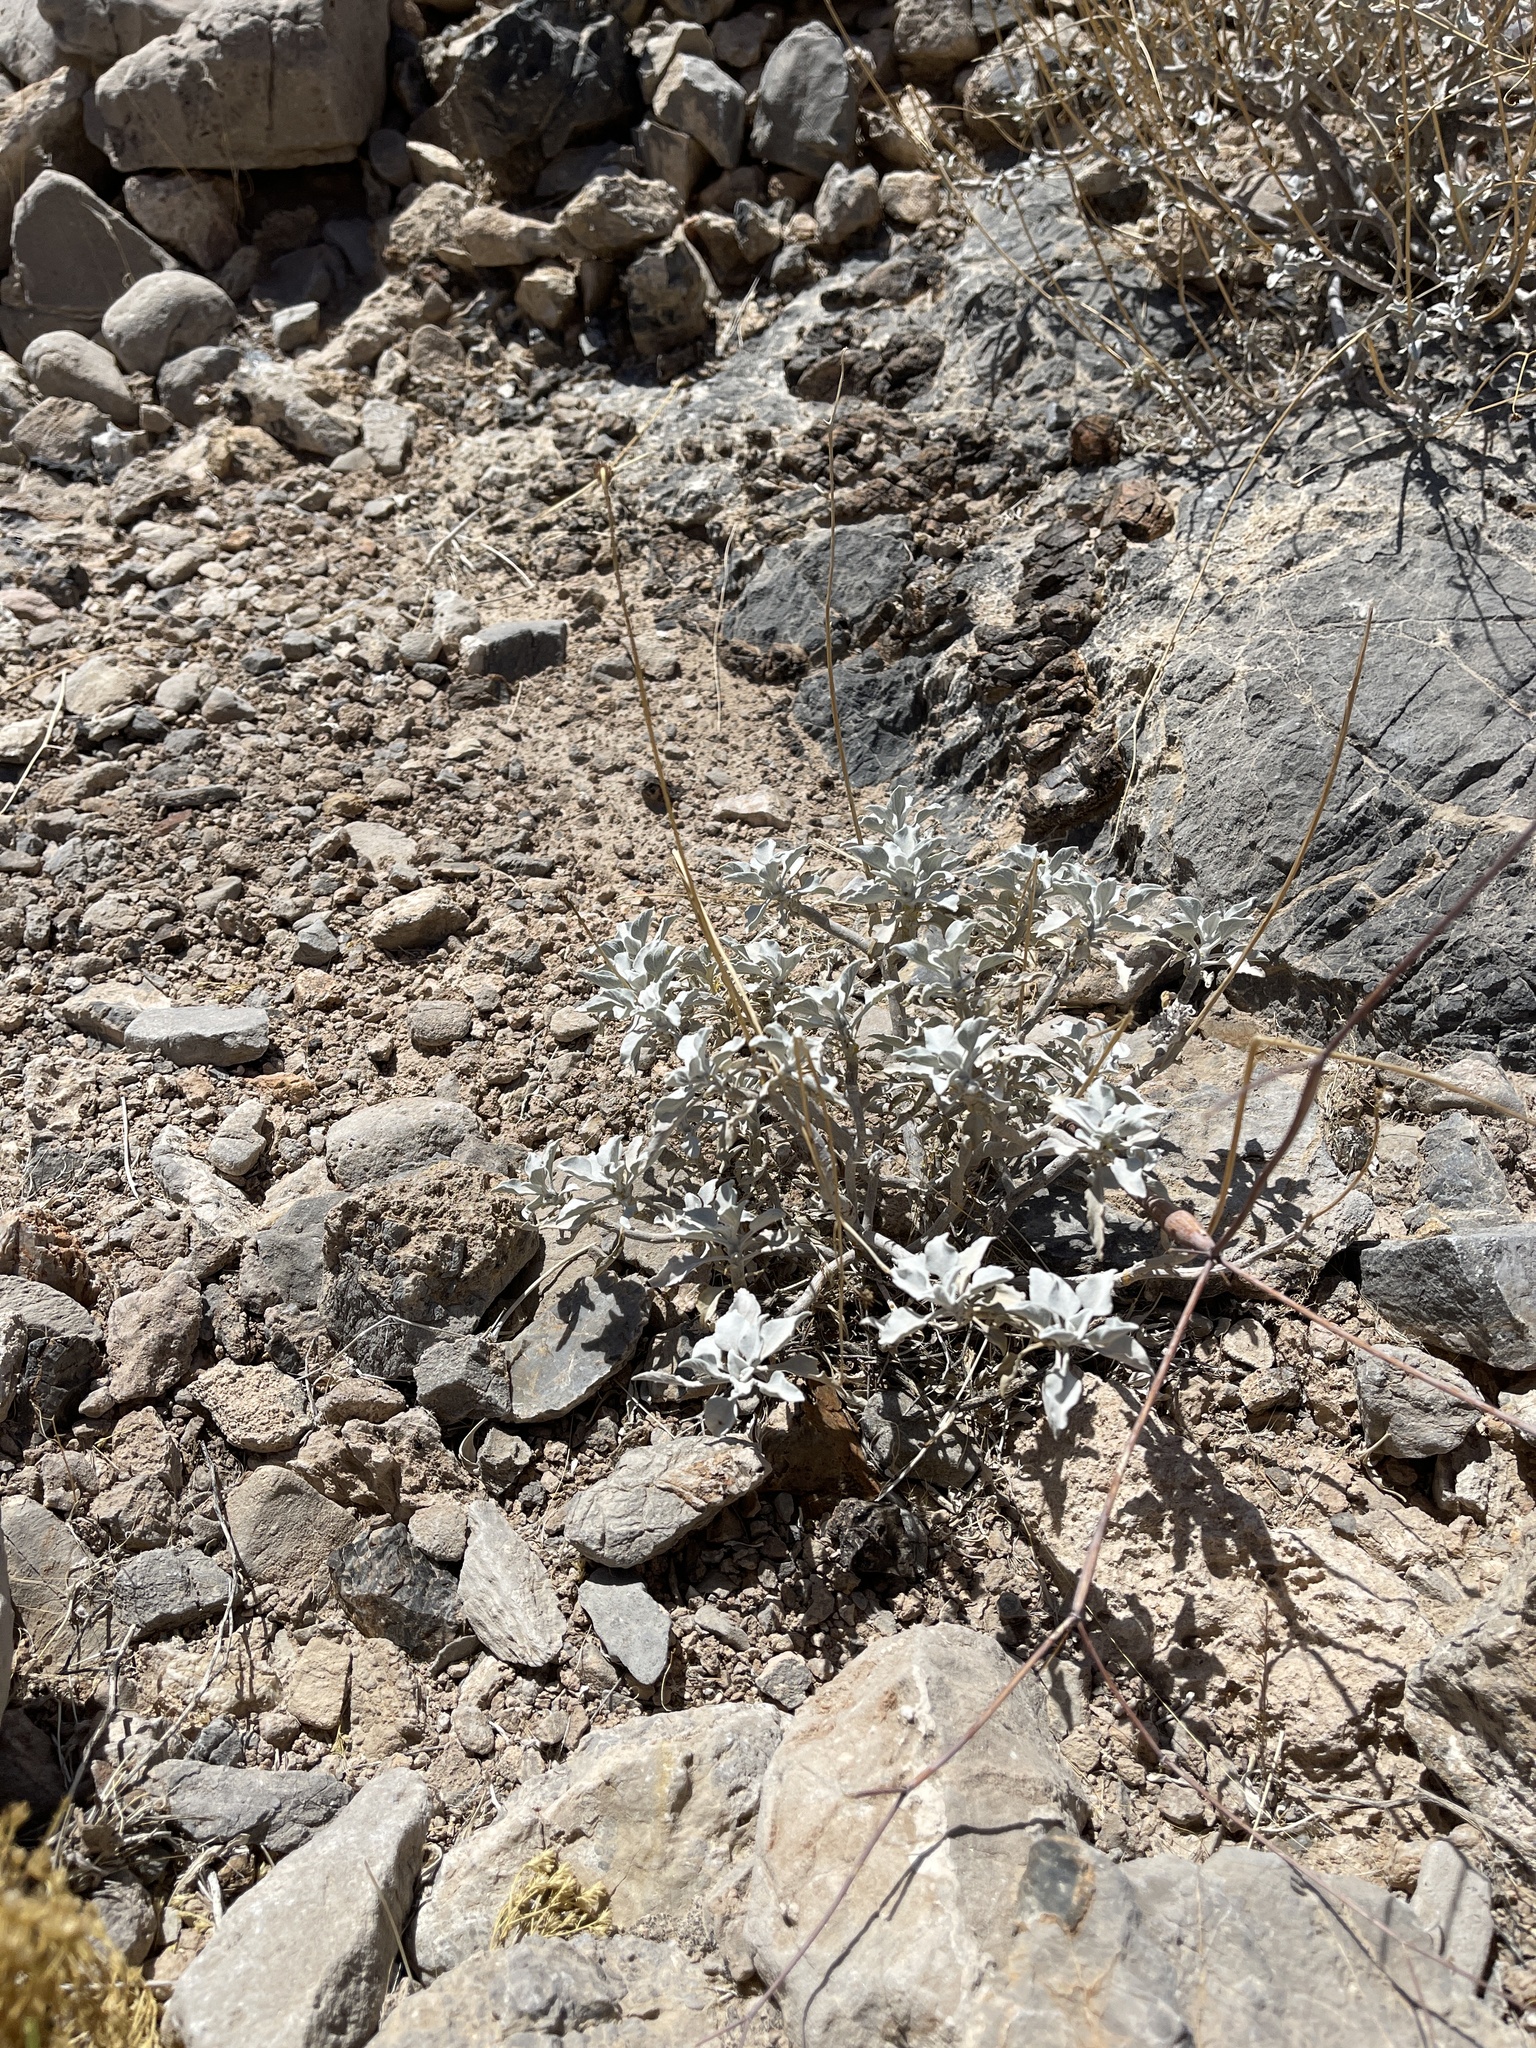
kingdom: Plantae
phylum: Tracheophyta
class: Magnoliopsida
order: Asterales
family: Asteraceae
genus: Encelia
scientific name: Encelia farinosa
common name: Brittlebush
